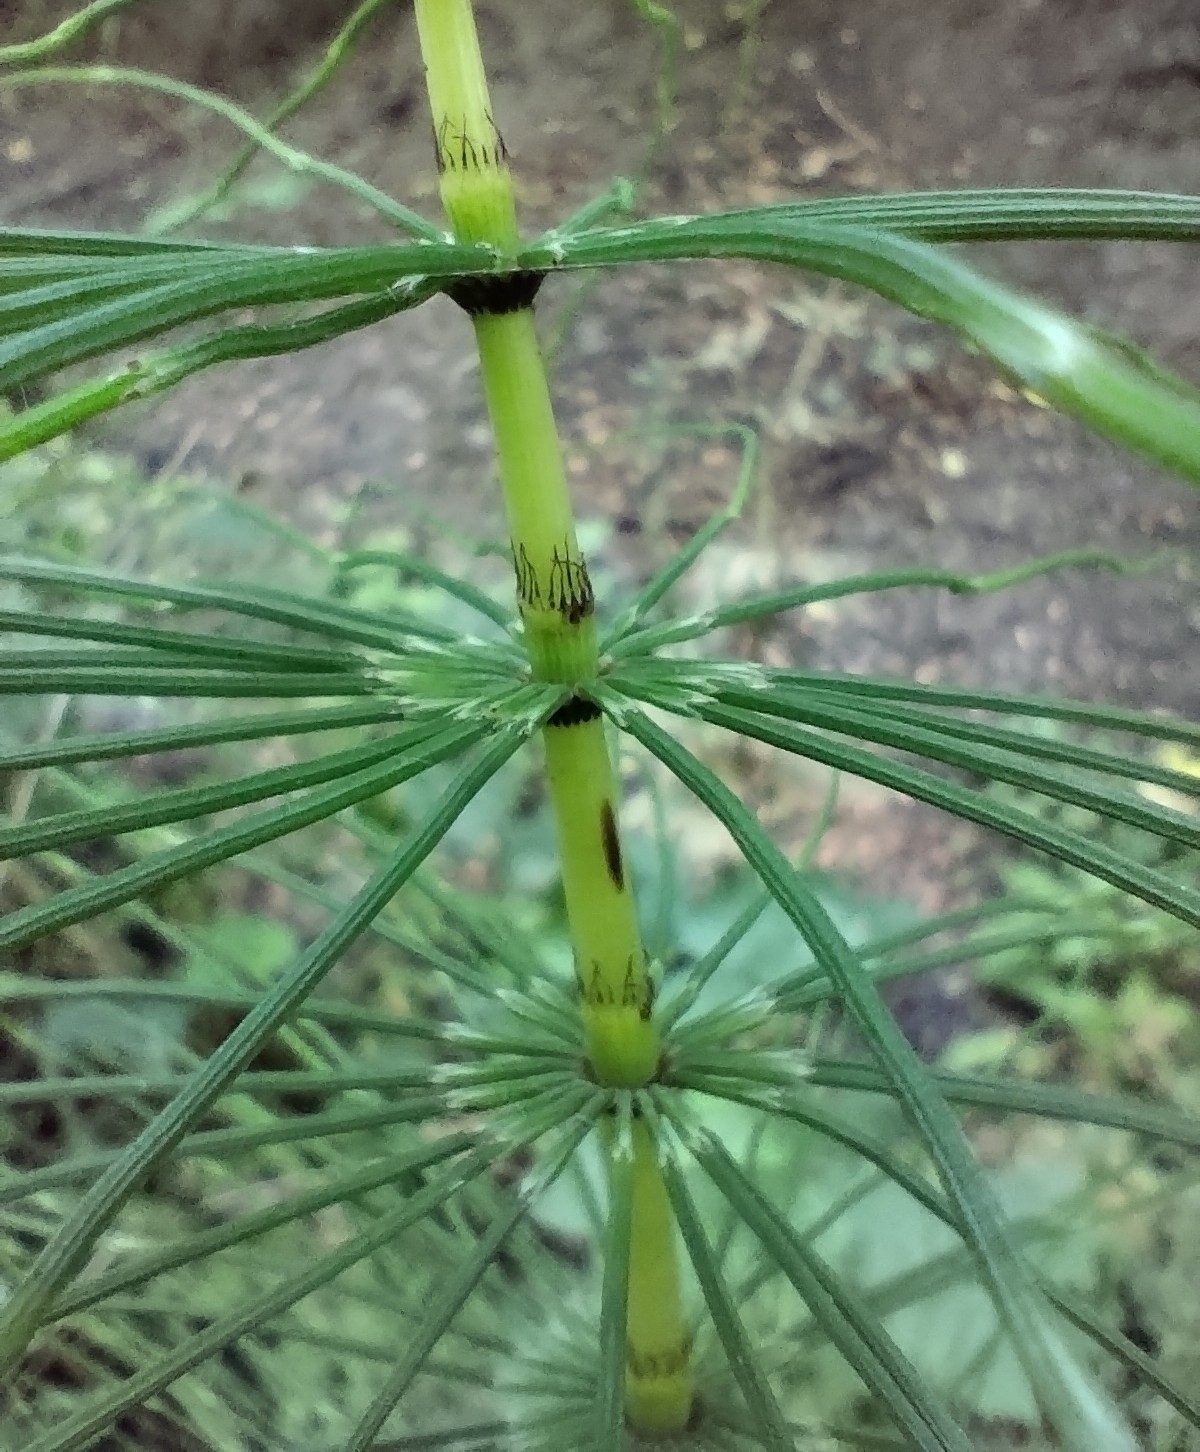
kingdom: Plantae
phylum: Tracheophyta
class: Polypodiopsida
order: Equisetales
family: Equisetaceae
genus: Equisetum
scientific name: Equisetum telmateia
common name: Great horsetail
